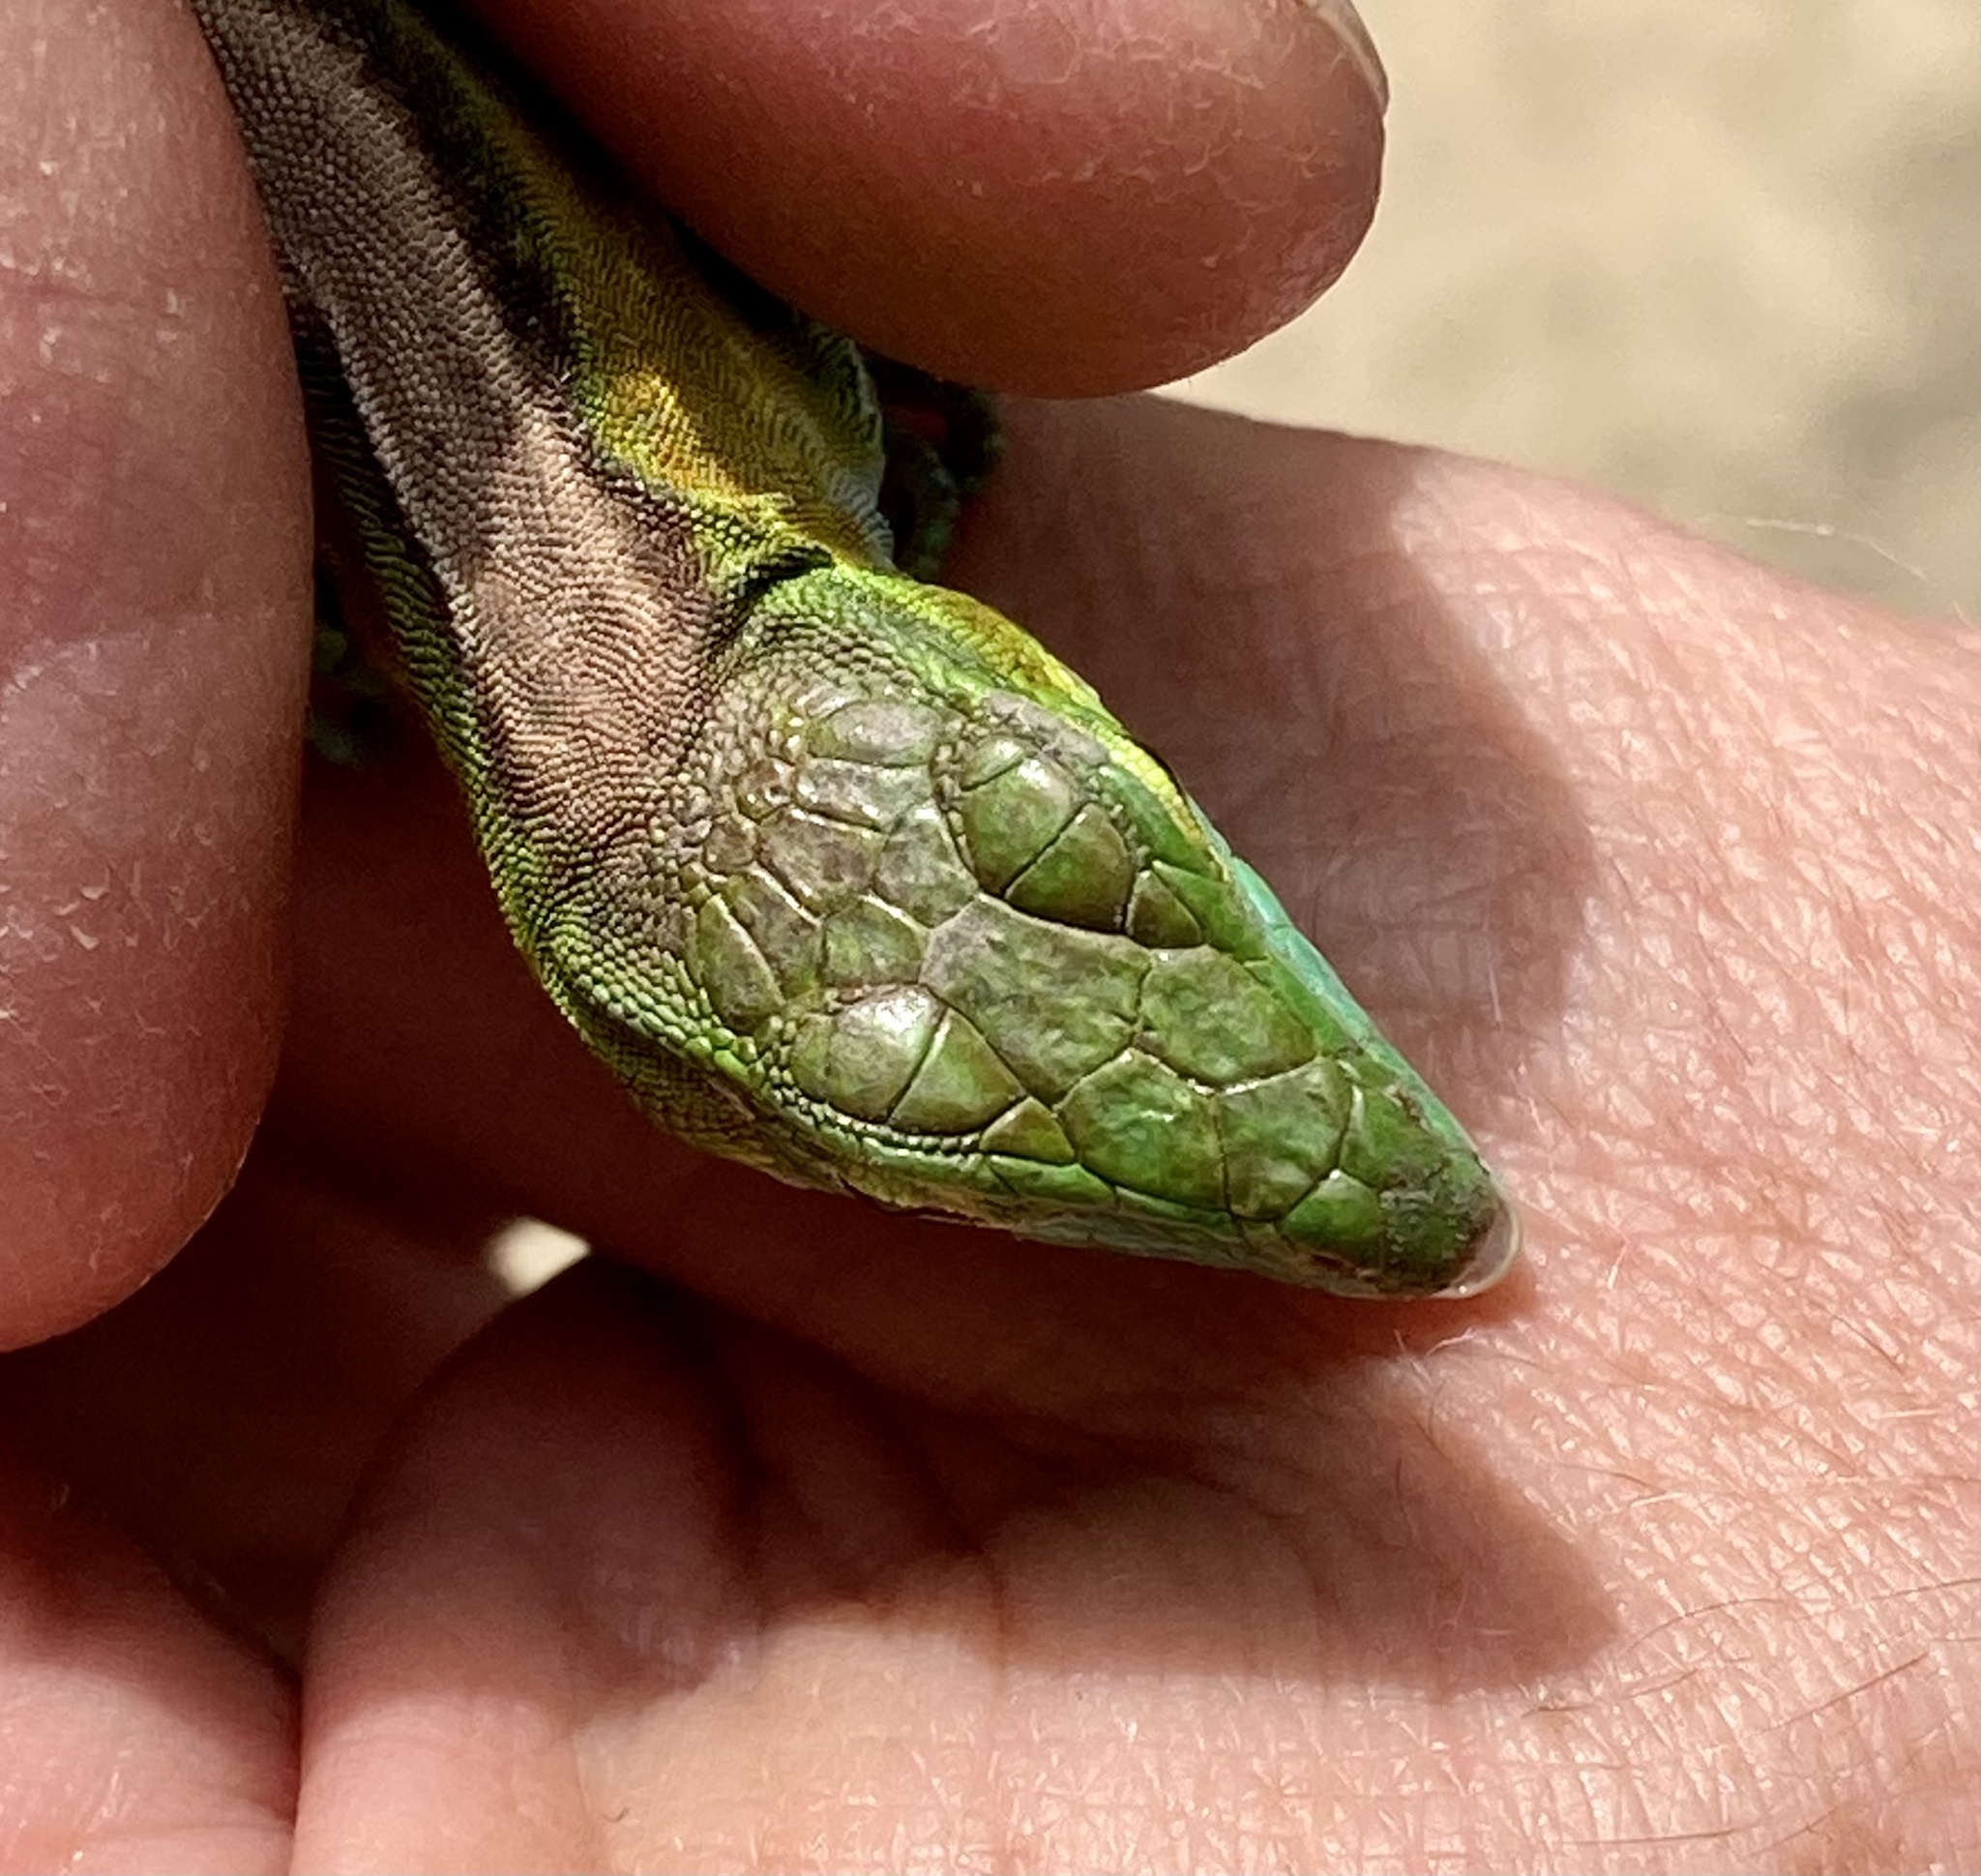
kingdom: Animalia
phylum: Chordata
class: Squamata
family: Teiidae
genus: Cnemidophorus
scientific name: Cnemidophorus gaigei
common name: Gaige’s rainbow lizard
